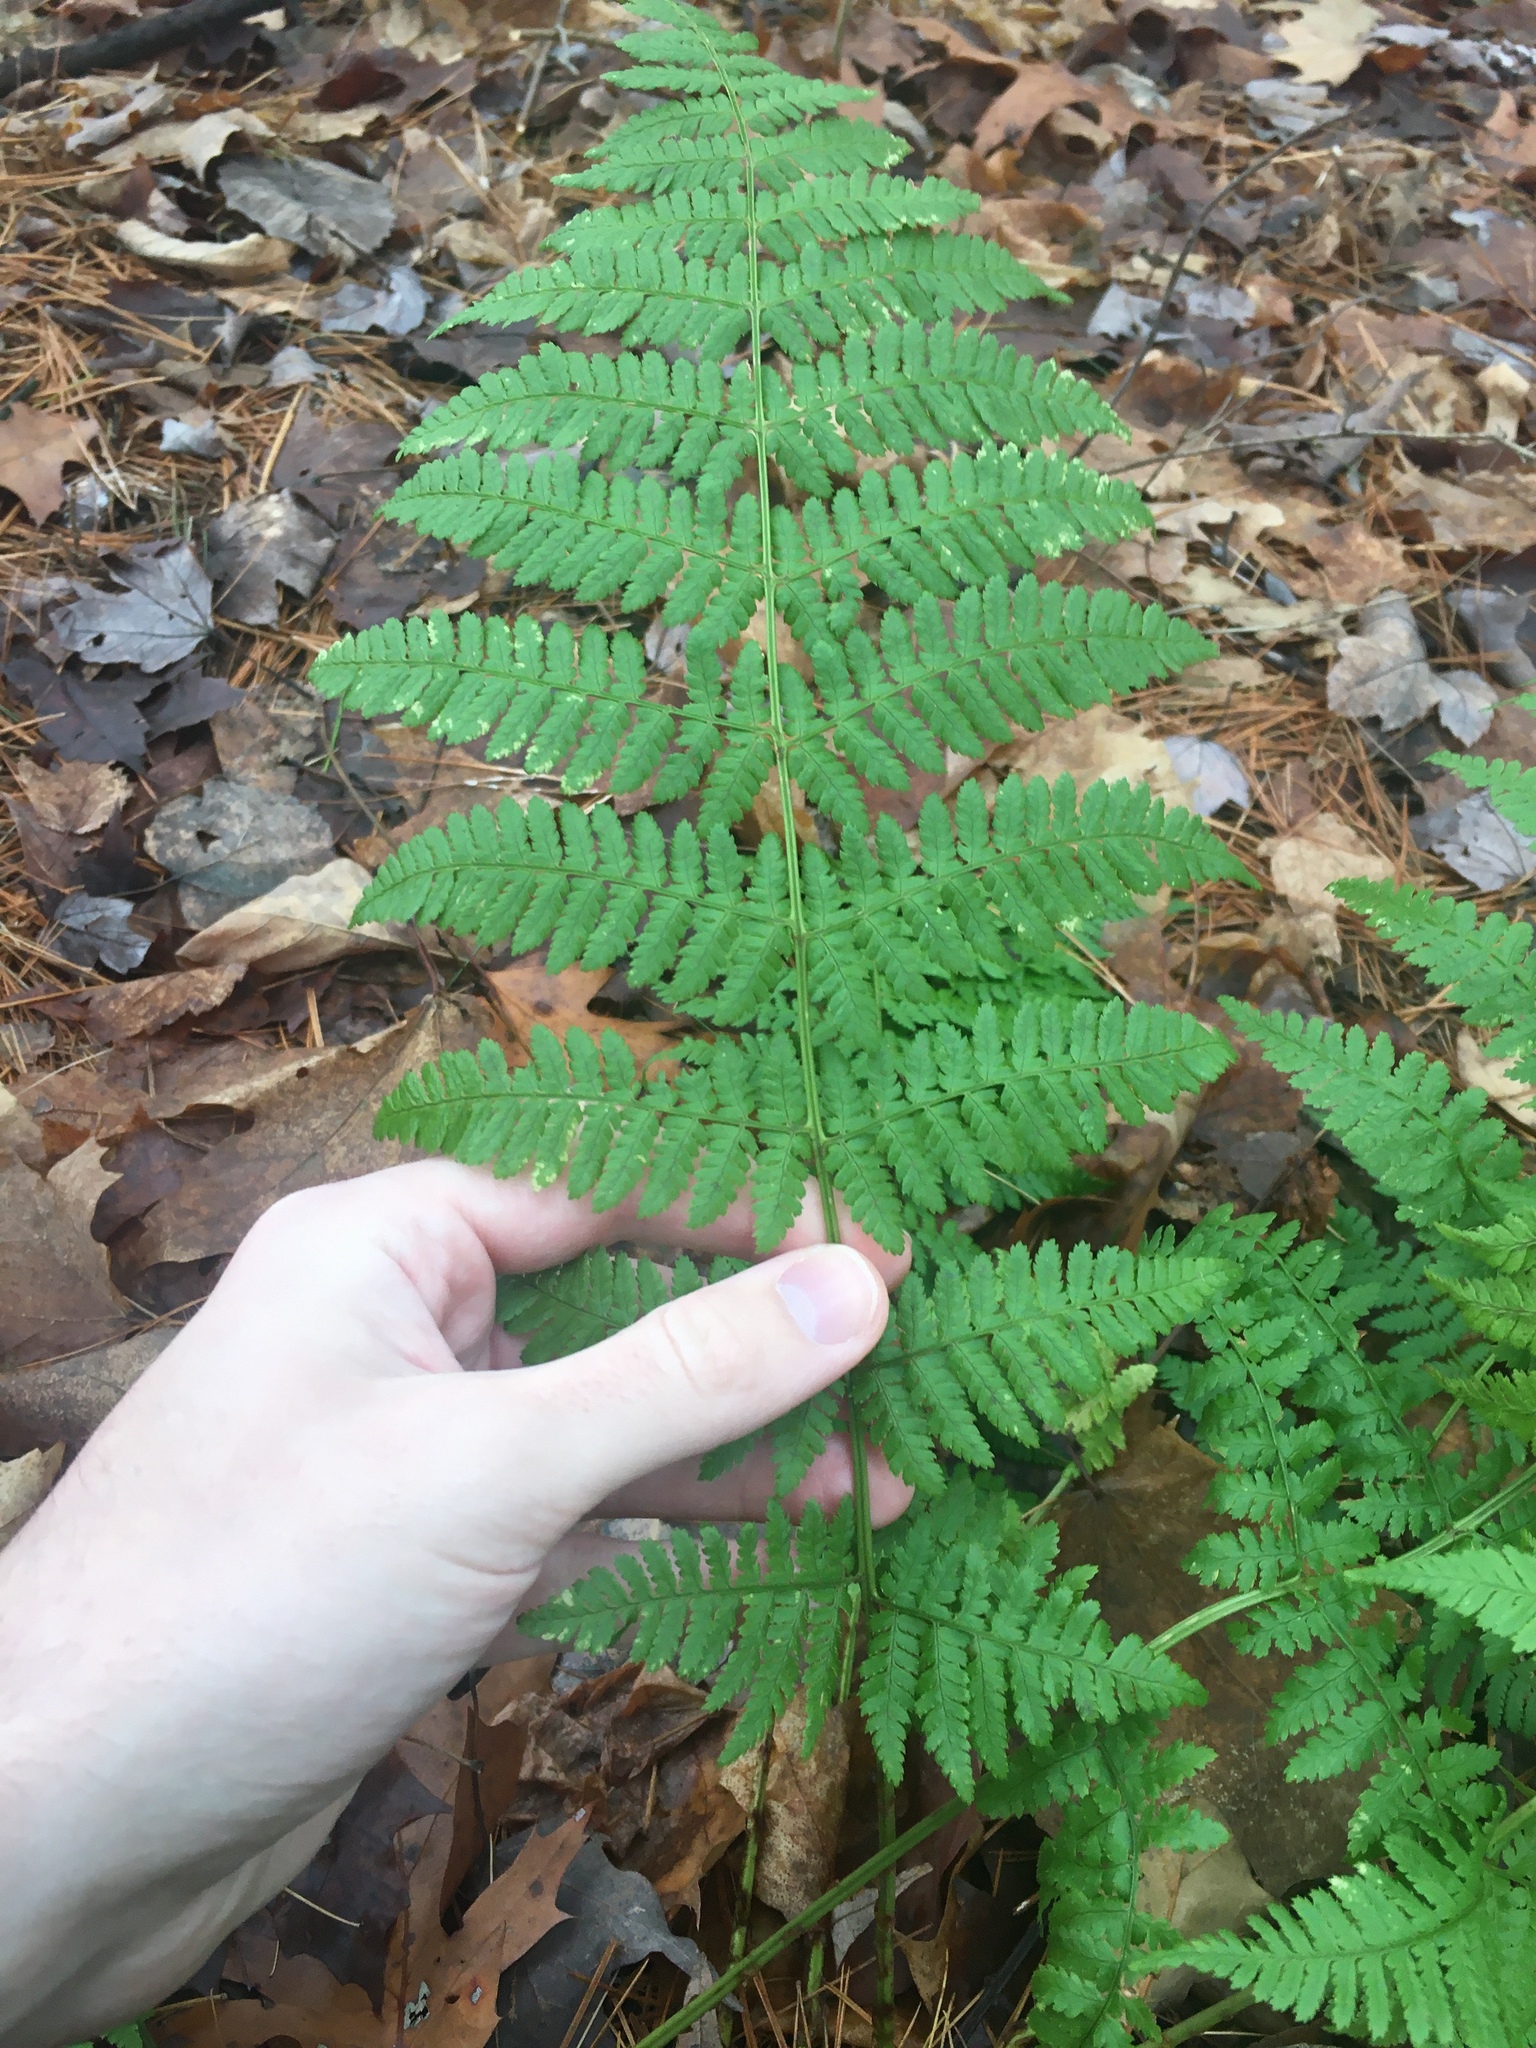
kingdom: Plantae
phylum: Tracheophyta
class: Polypodiopsida
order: Polypodiales
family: Dryopteridaceae
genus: Dryopteris
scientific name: Dryopteris intermedia
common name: Evergreen wood fern
